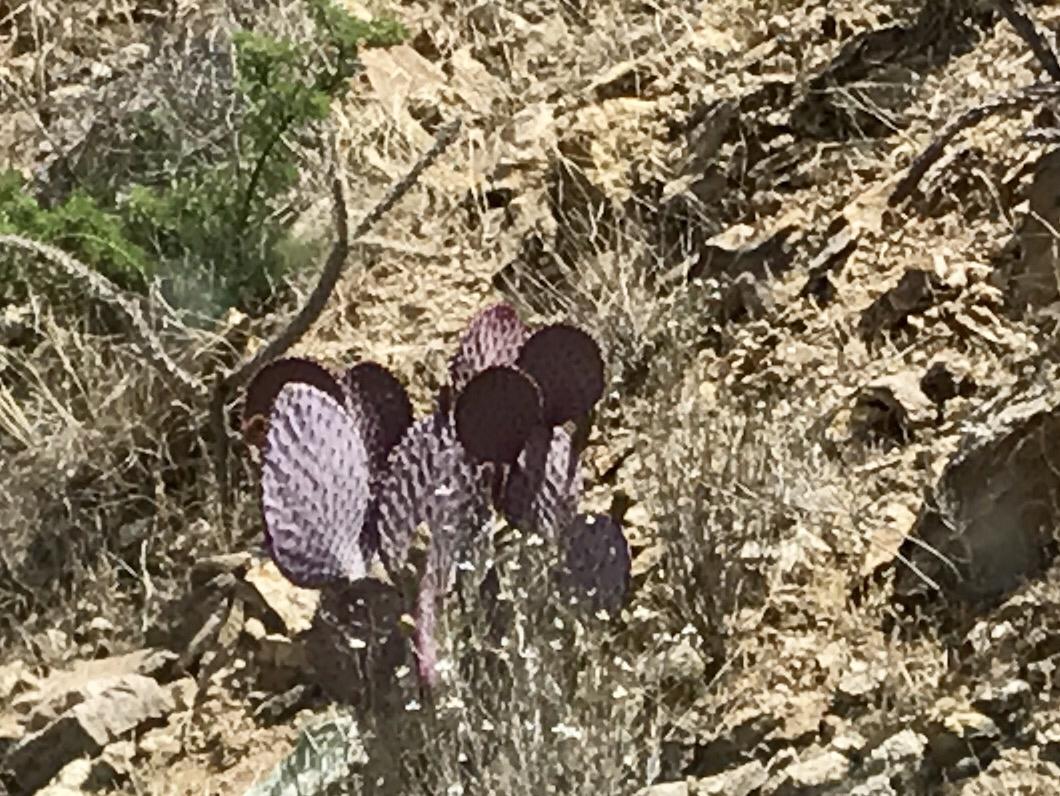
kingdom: Plantae
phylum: Tracheophyta
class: Magnoliopsida
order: Caryophyllales
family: Cactaceae
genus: Opuntia
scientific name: Opuntia gosseliniana
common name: Violet prickly-pear
